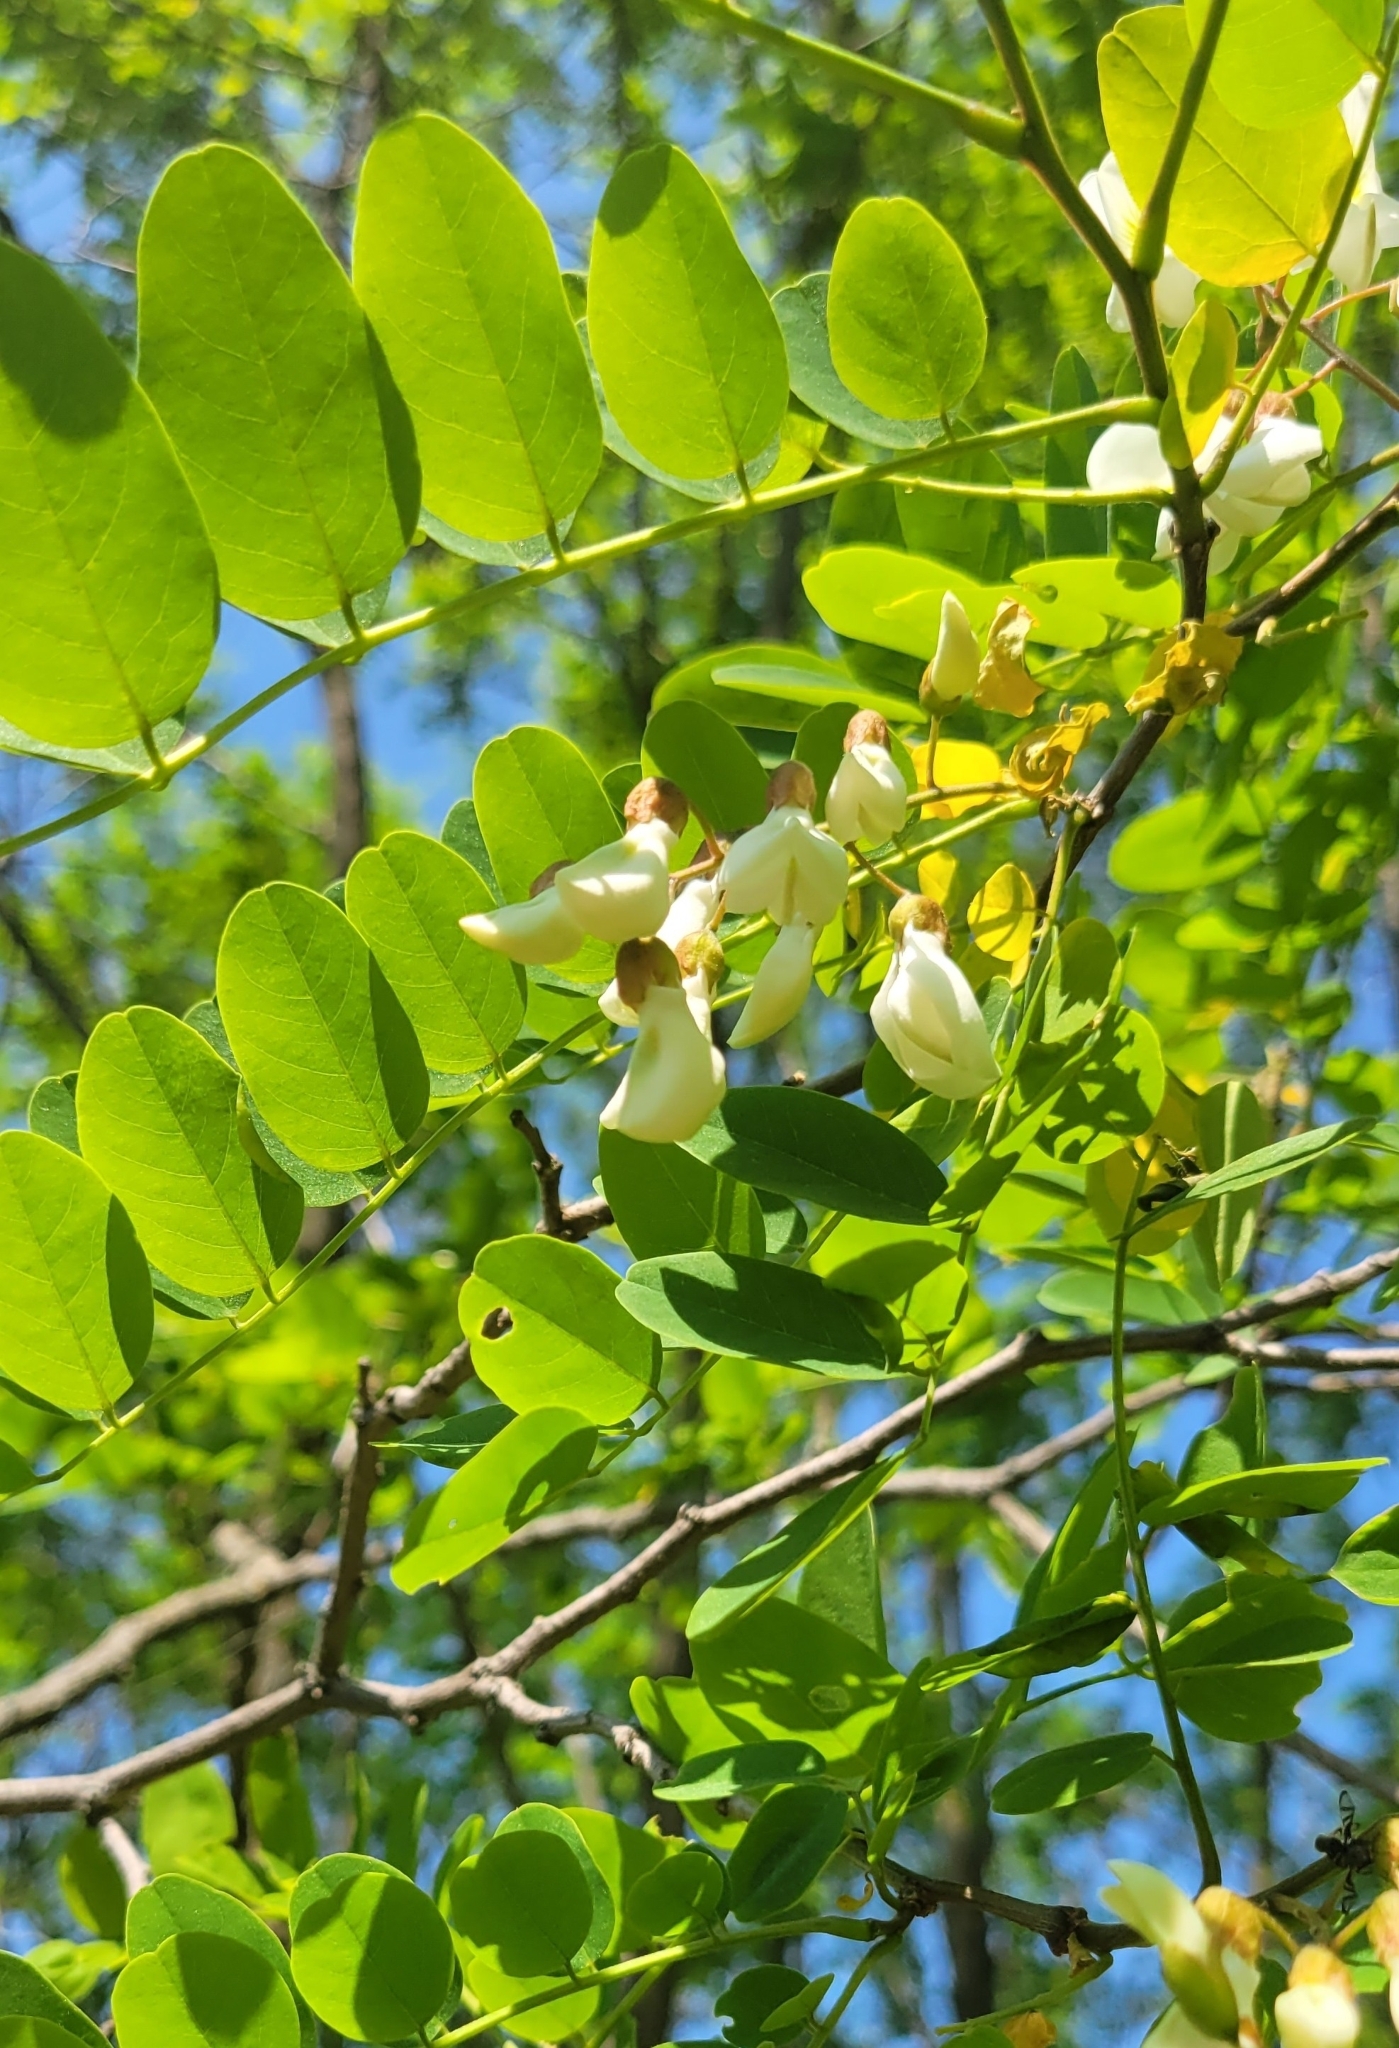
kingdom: Plantae
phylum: Tracheophyta
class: Magnoliopsida
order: Fabales
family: Fabaceae
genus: Robinia
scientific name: Robinia pseudoacacia
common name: Black locust
